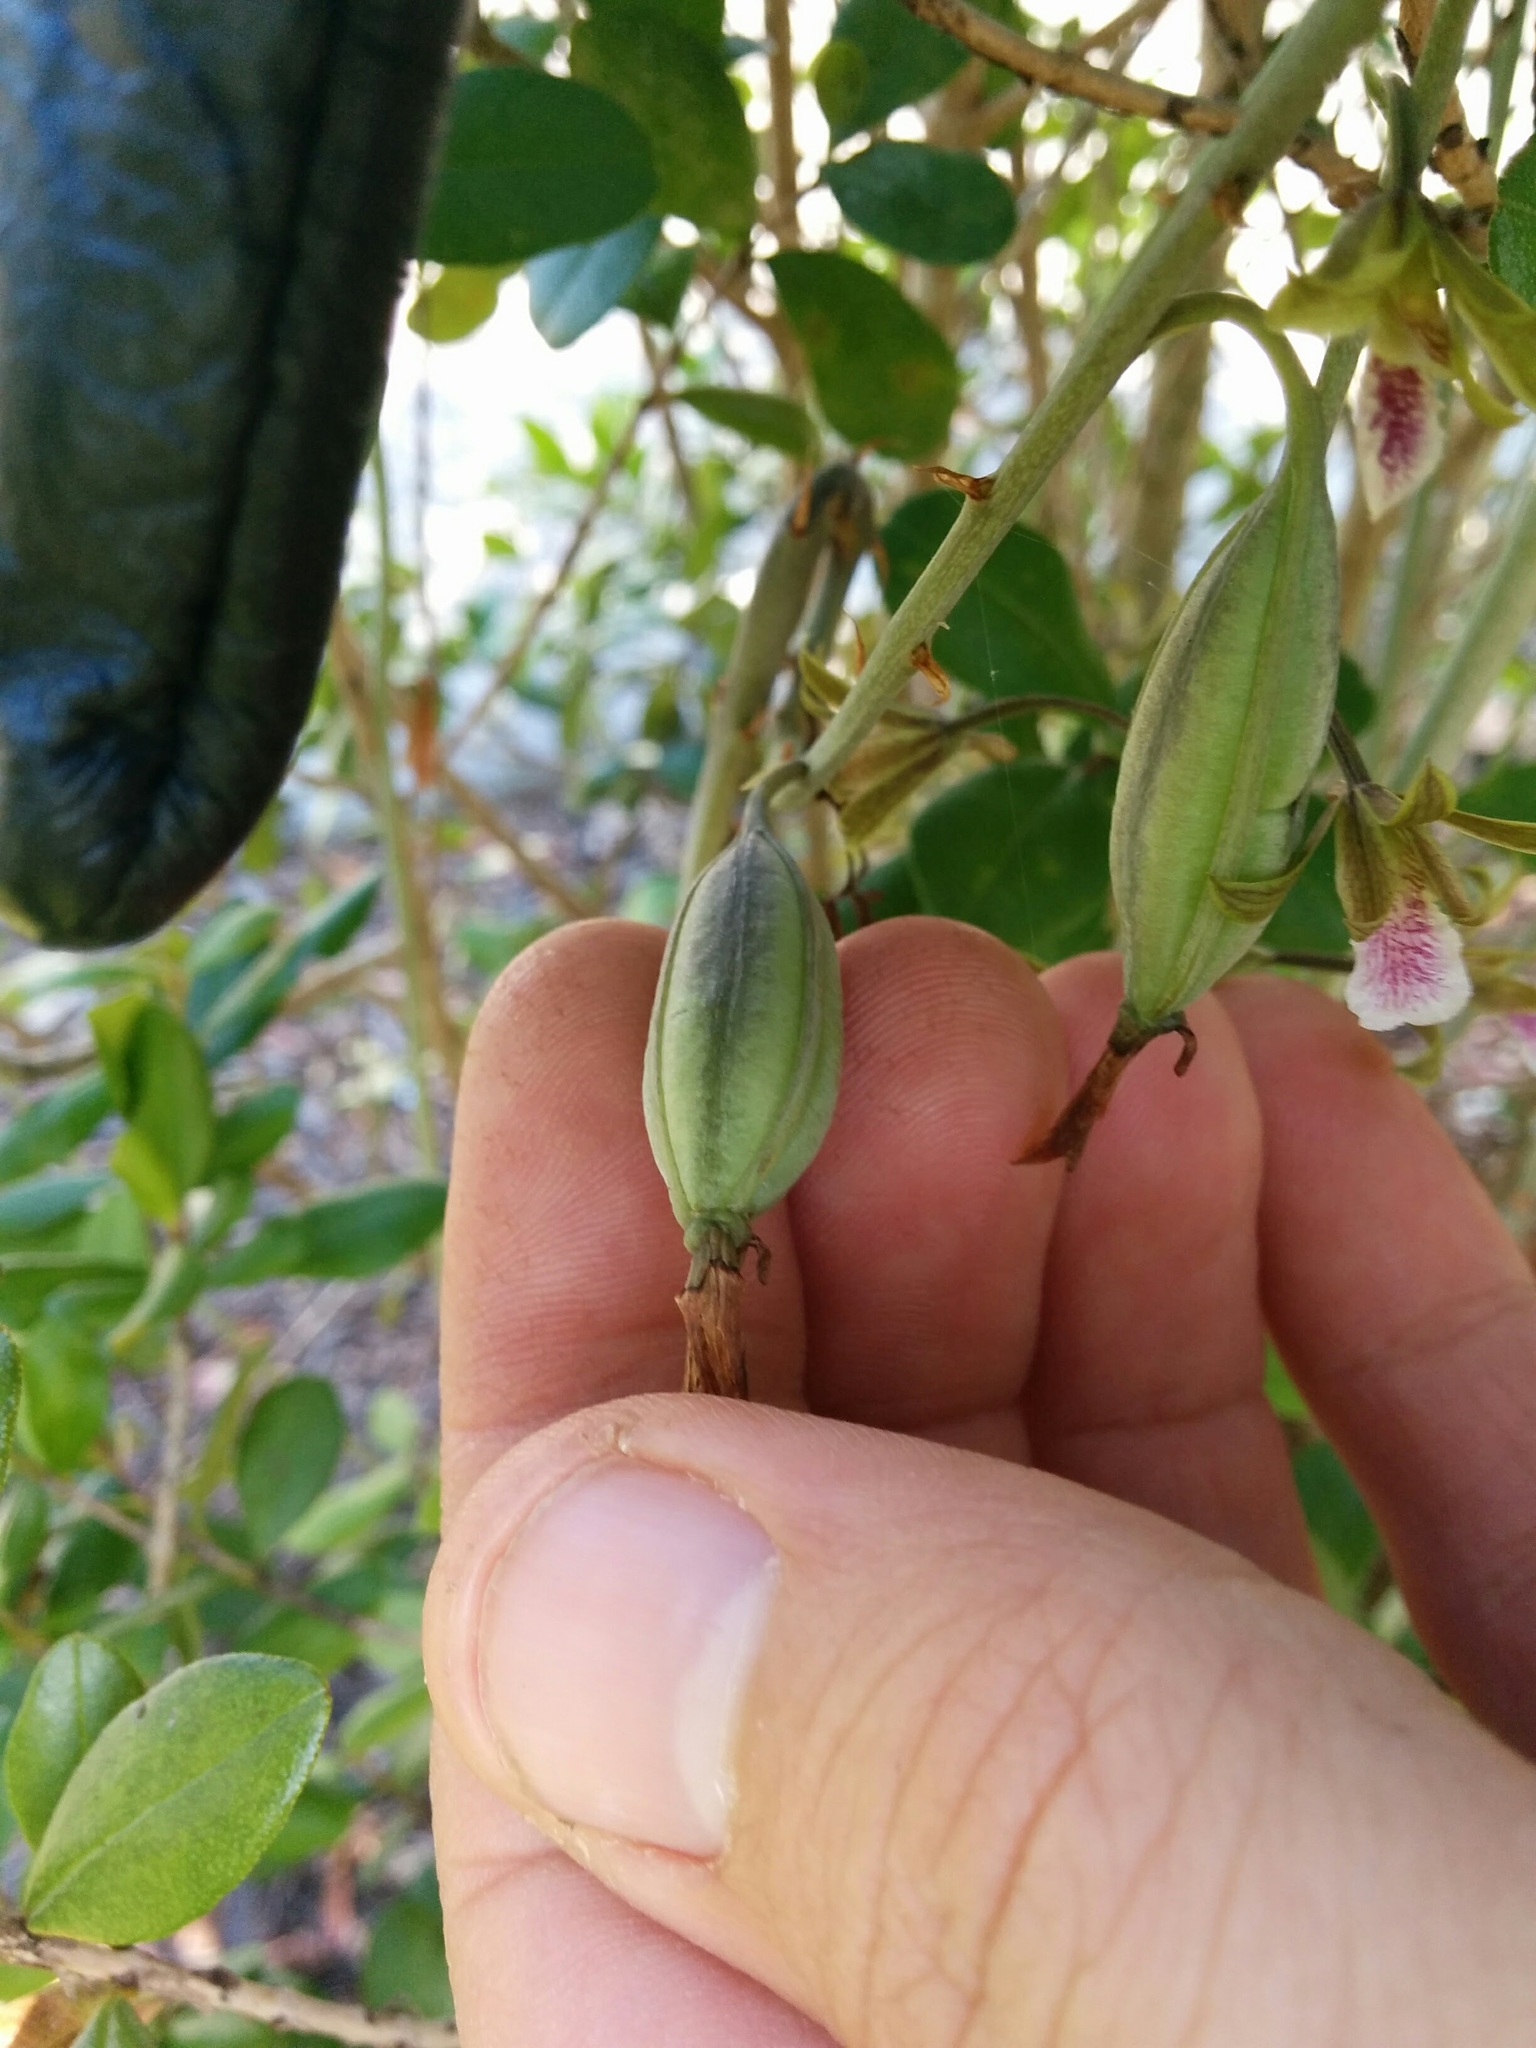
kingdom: Plantae
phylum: Tracheophyta
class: Liliopsida
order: Asparagales
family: Orchidaceae
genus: Eulophia
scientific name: Eulophia graminea
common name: Orchid
